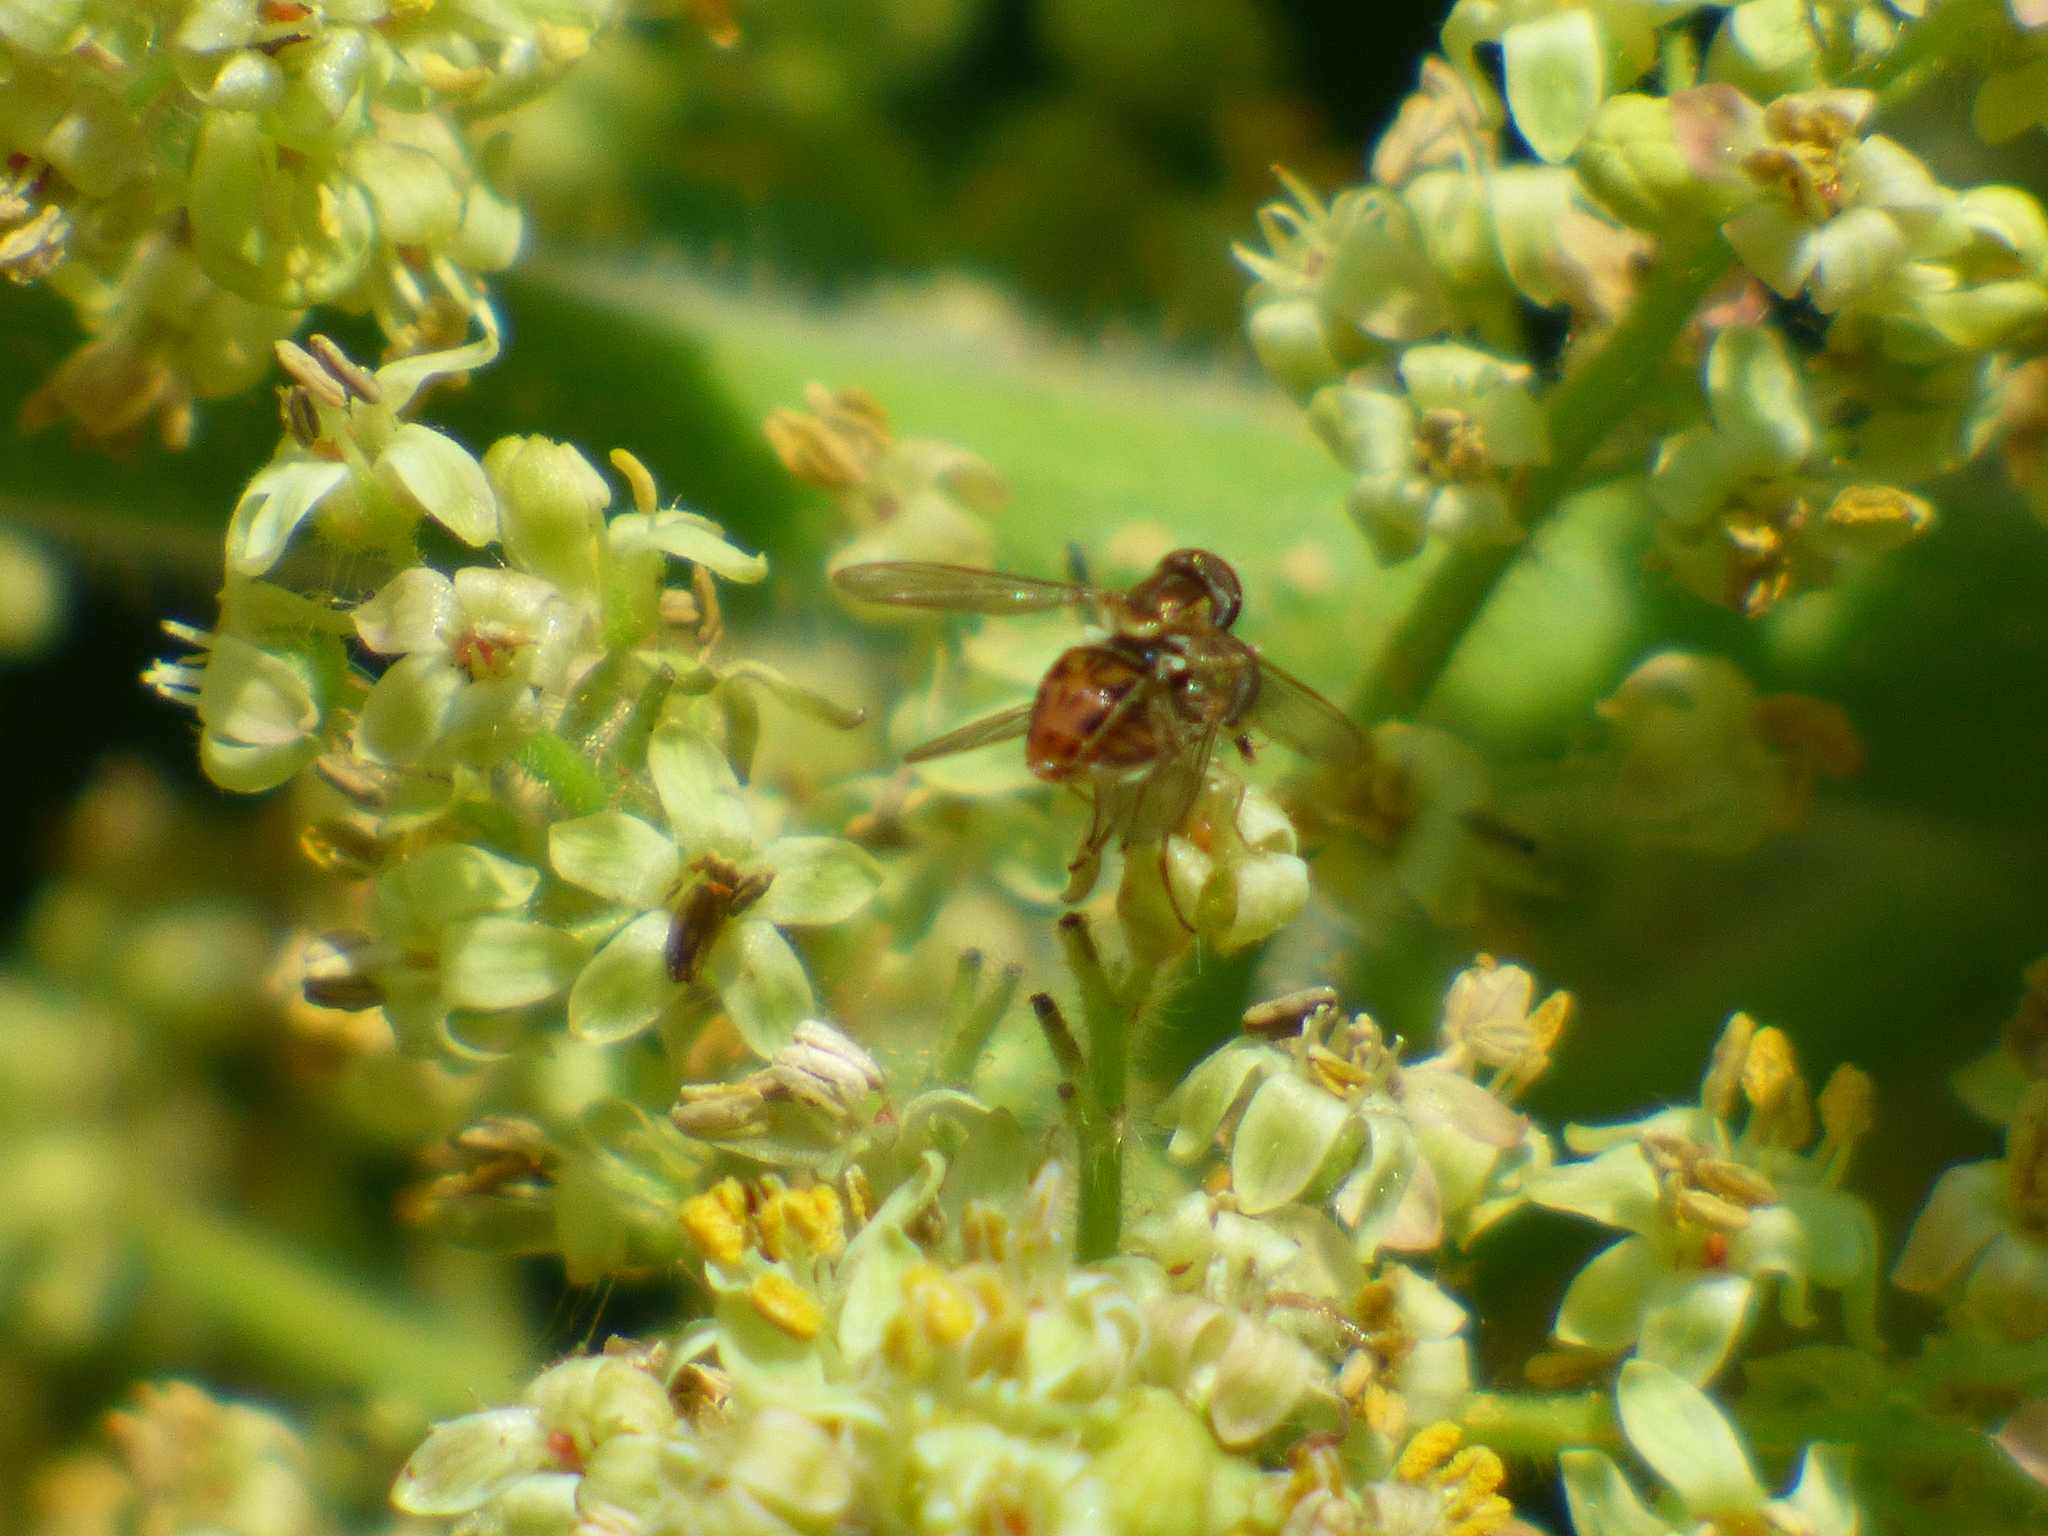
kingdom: Animalia
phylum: Arthropoda
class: Insecta
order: Diptera
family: Syrphidae
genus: Toxomerus
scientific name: Toxomerus marginatus
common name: Syrphid fly
